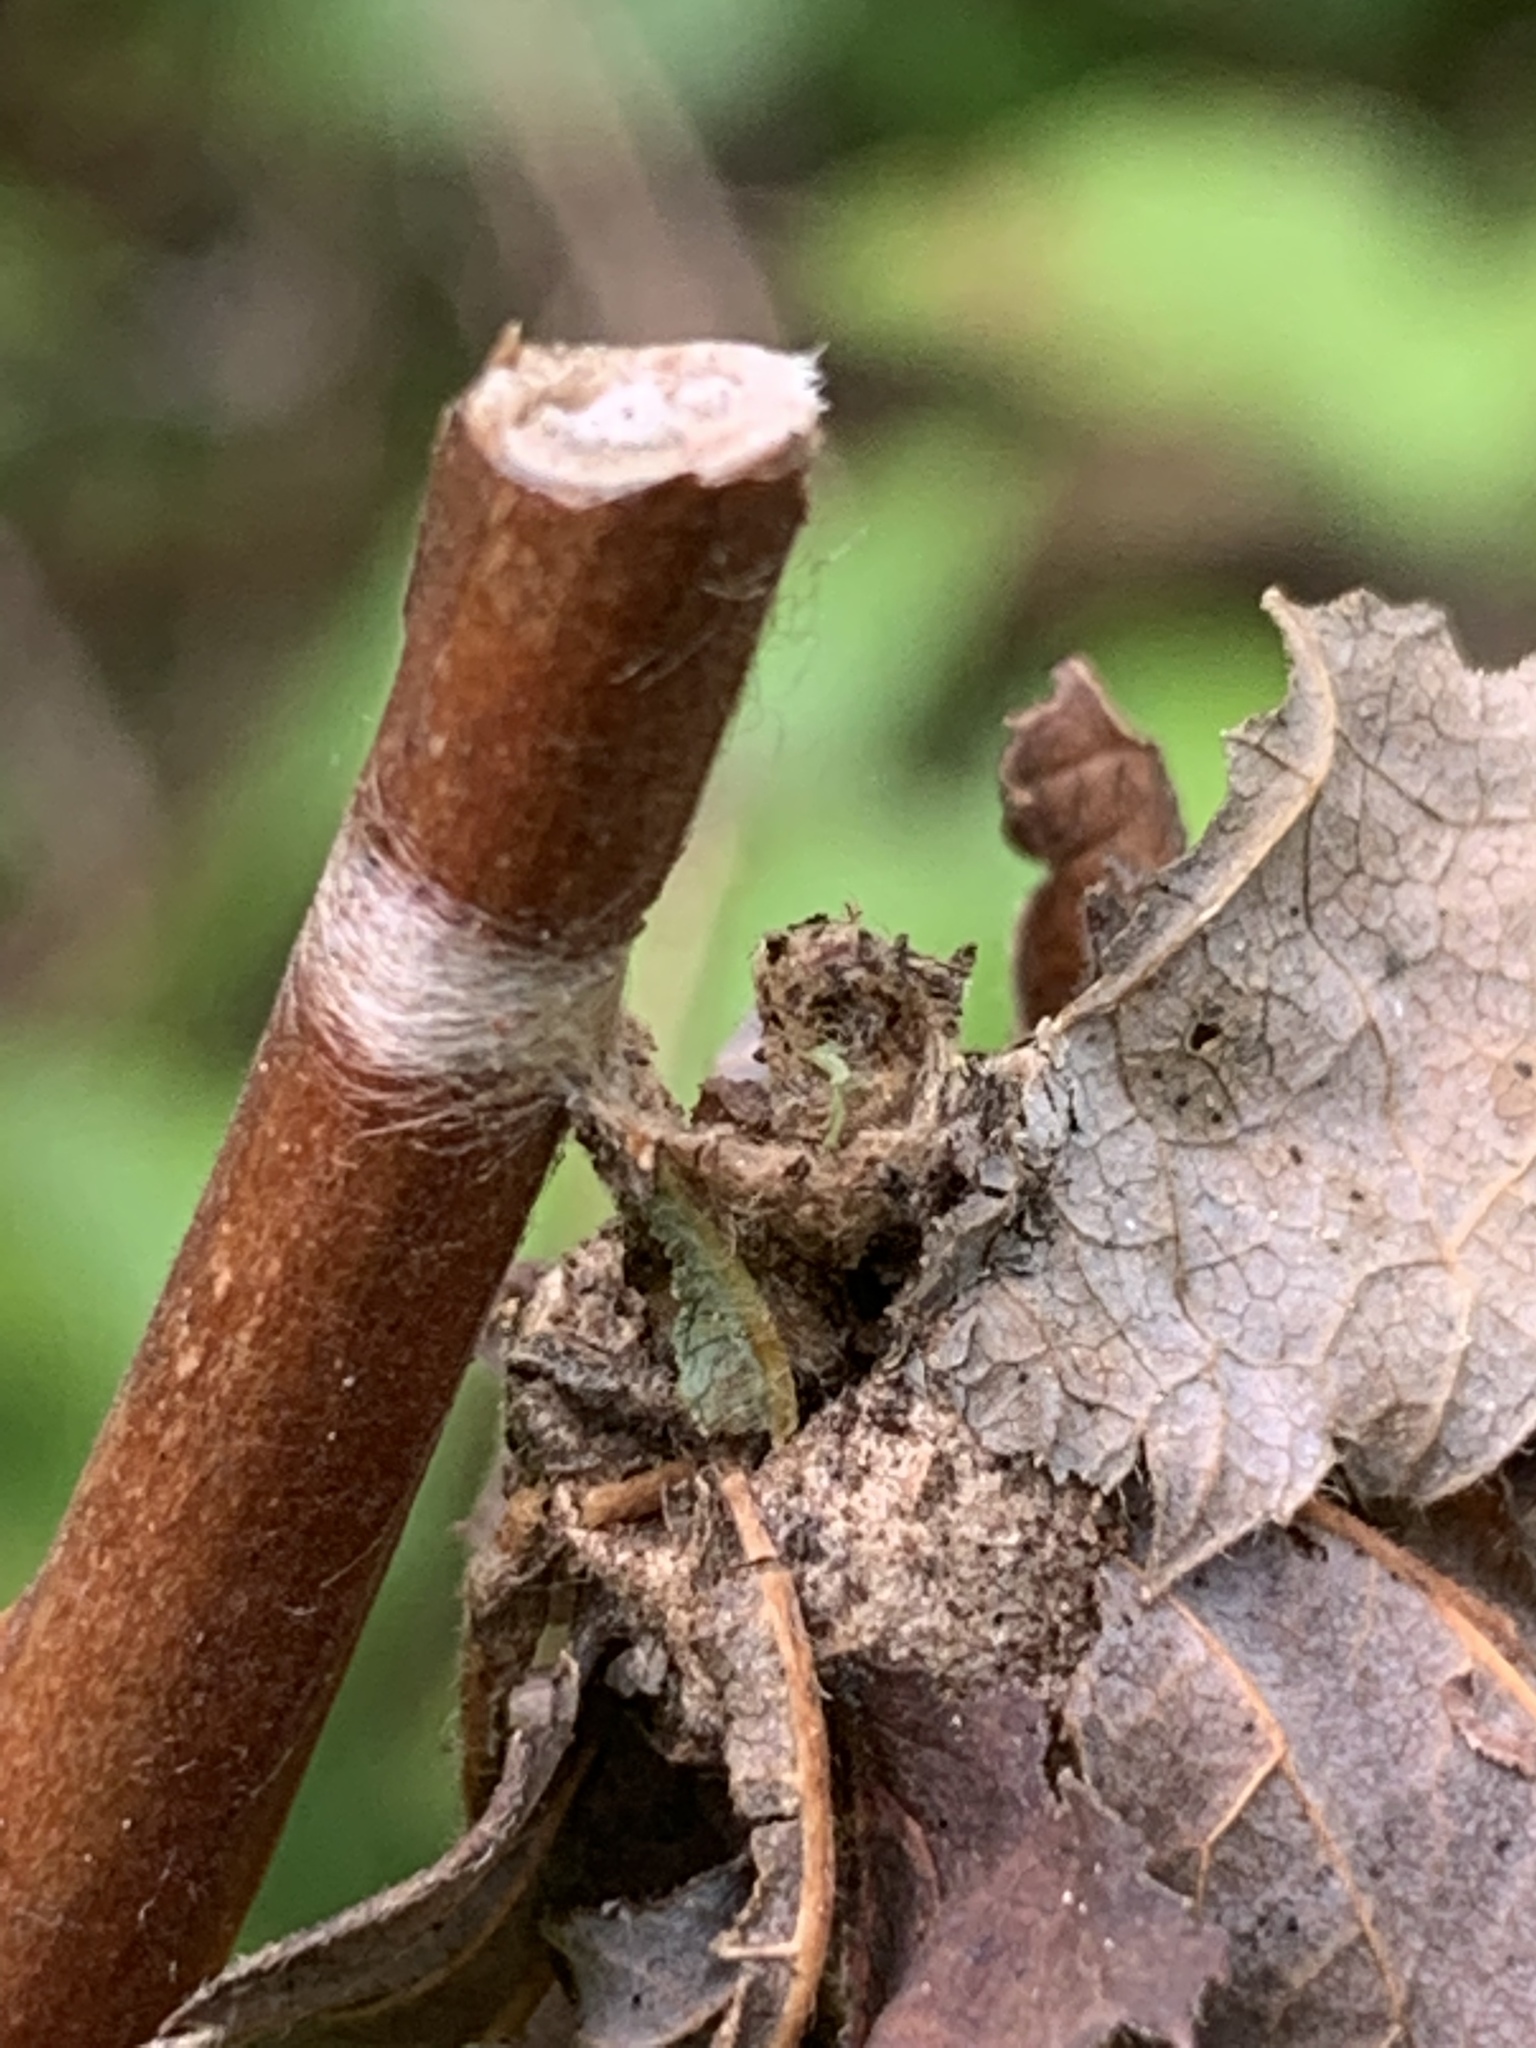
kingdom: Animalia
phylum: Arthropoda
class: Insecta
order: Lepidoptera
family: Psychidae
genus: Thyridopteryx
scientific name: Thyridopteryx ephemeraeformis
